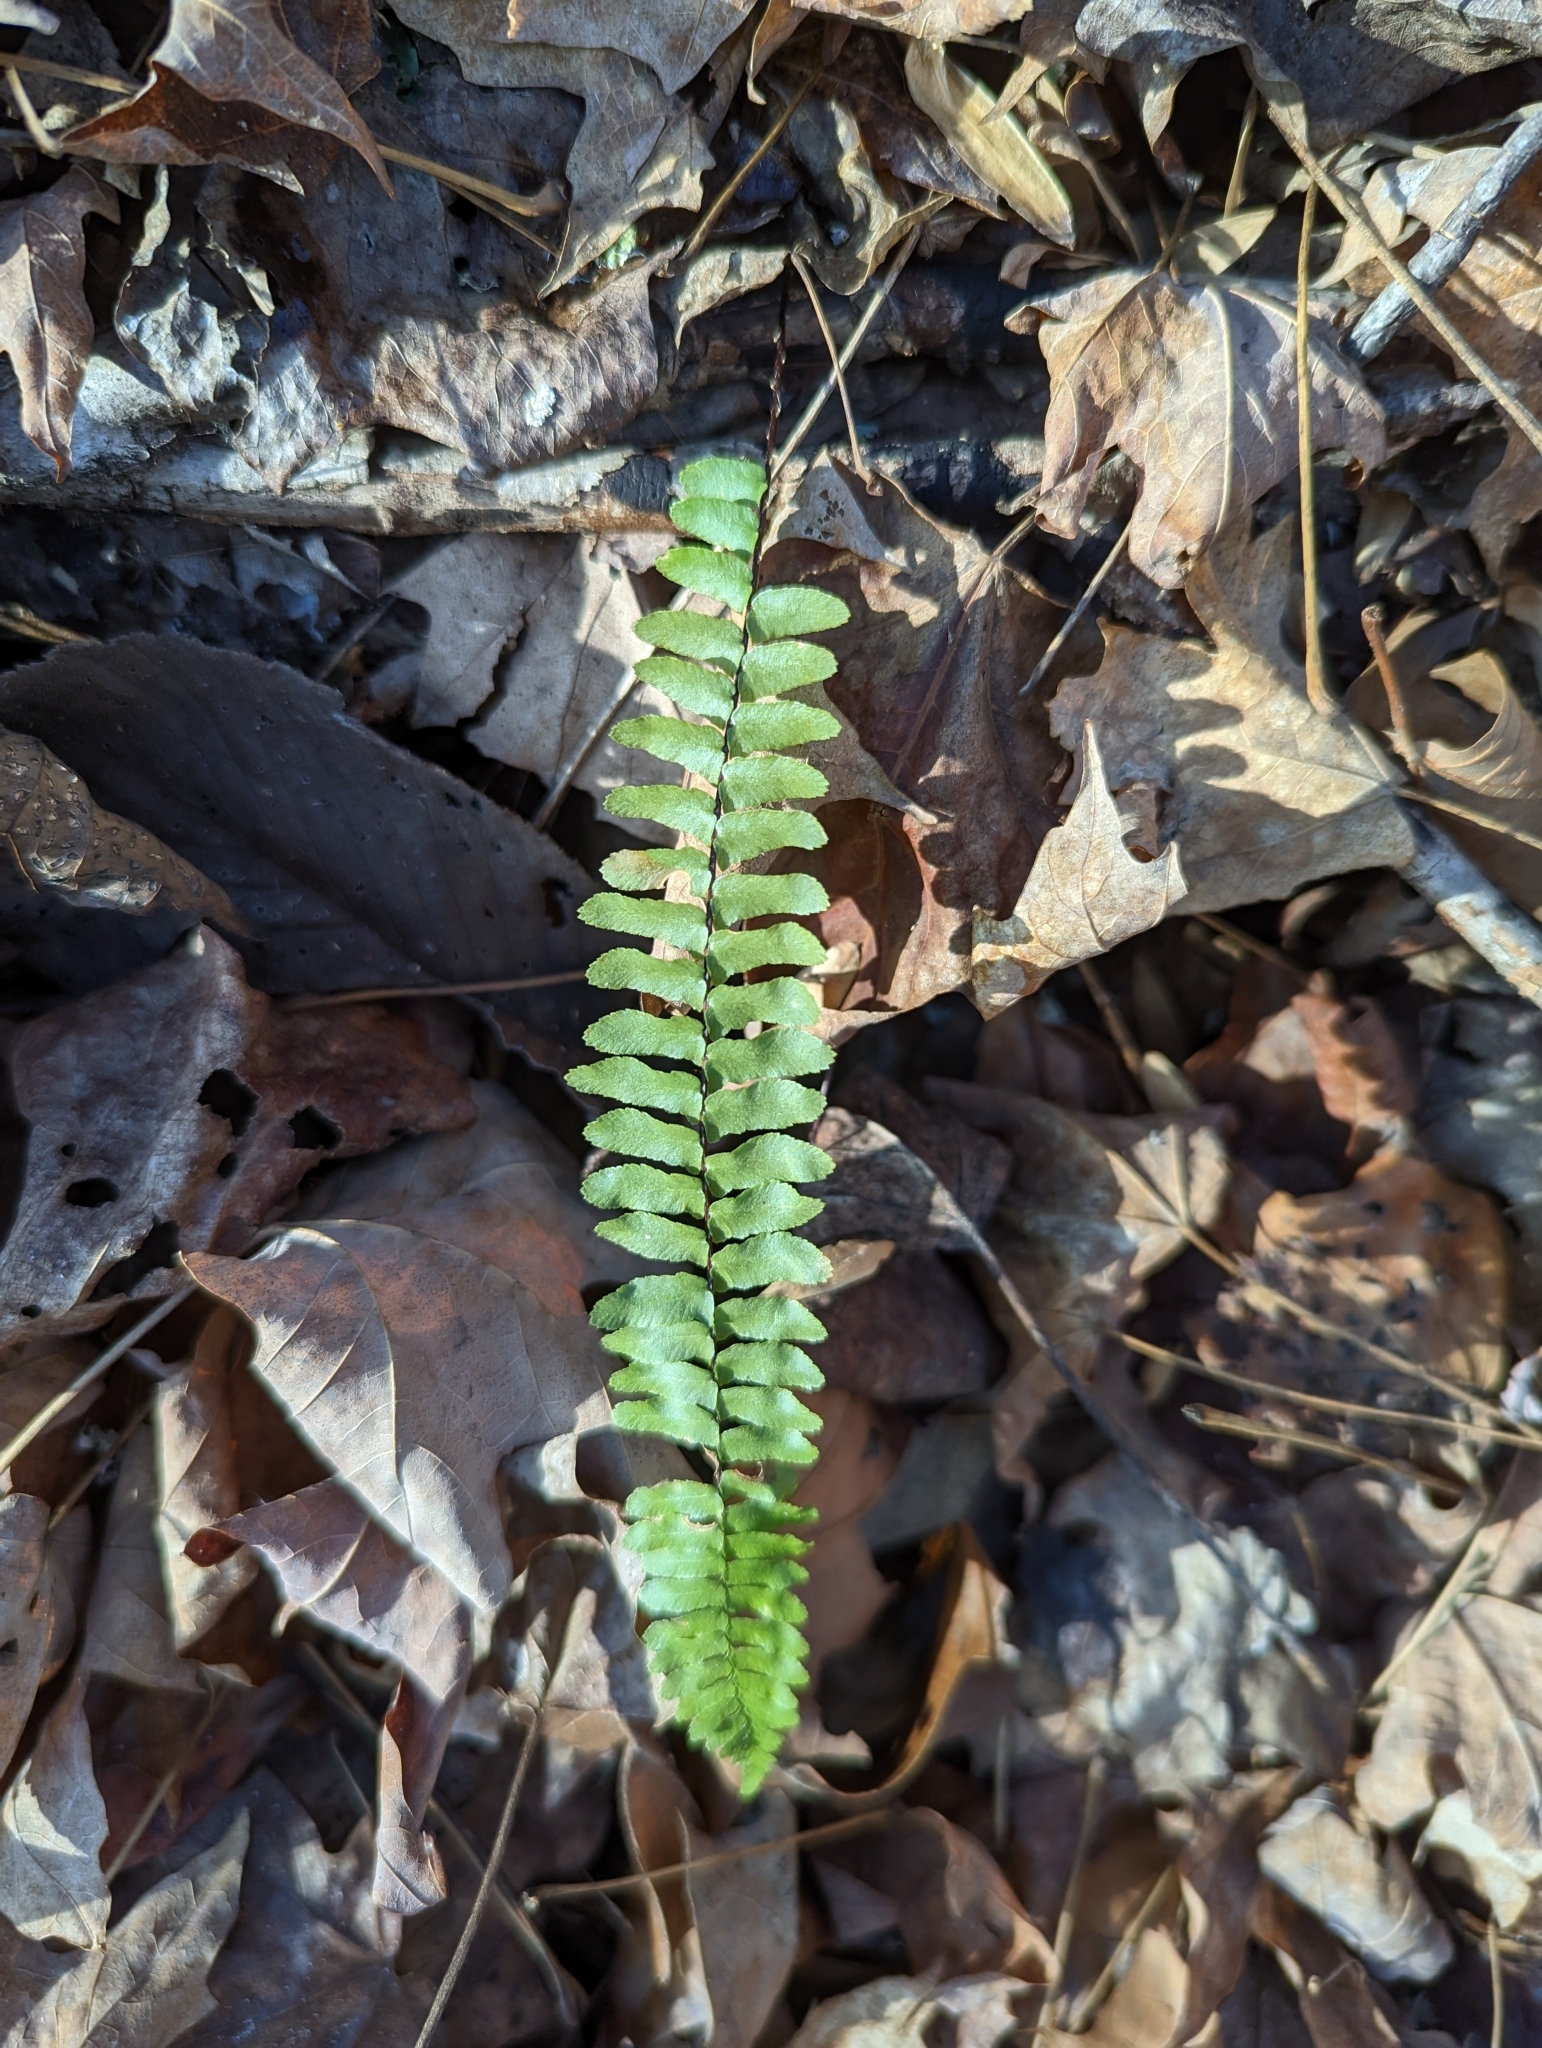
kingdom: Plantae
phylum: Tracheophyta
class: Polypodiopsida
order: Polypodiales
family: Aspleniaceae
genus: Asplenium
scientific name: Asplenium platyneuron
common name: Ebony spleenwort
